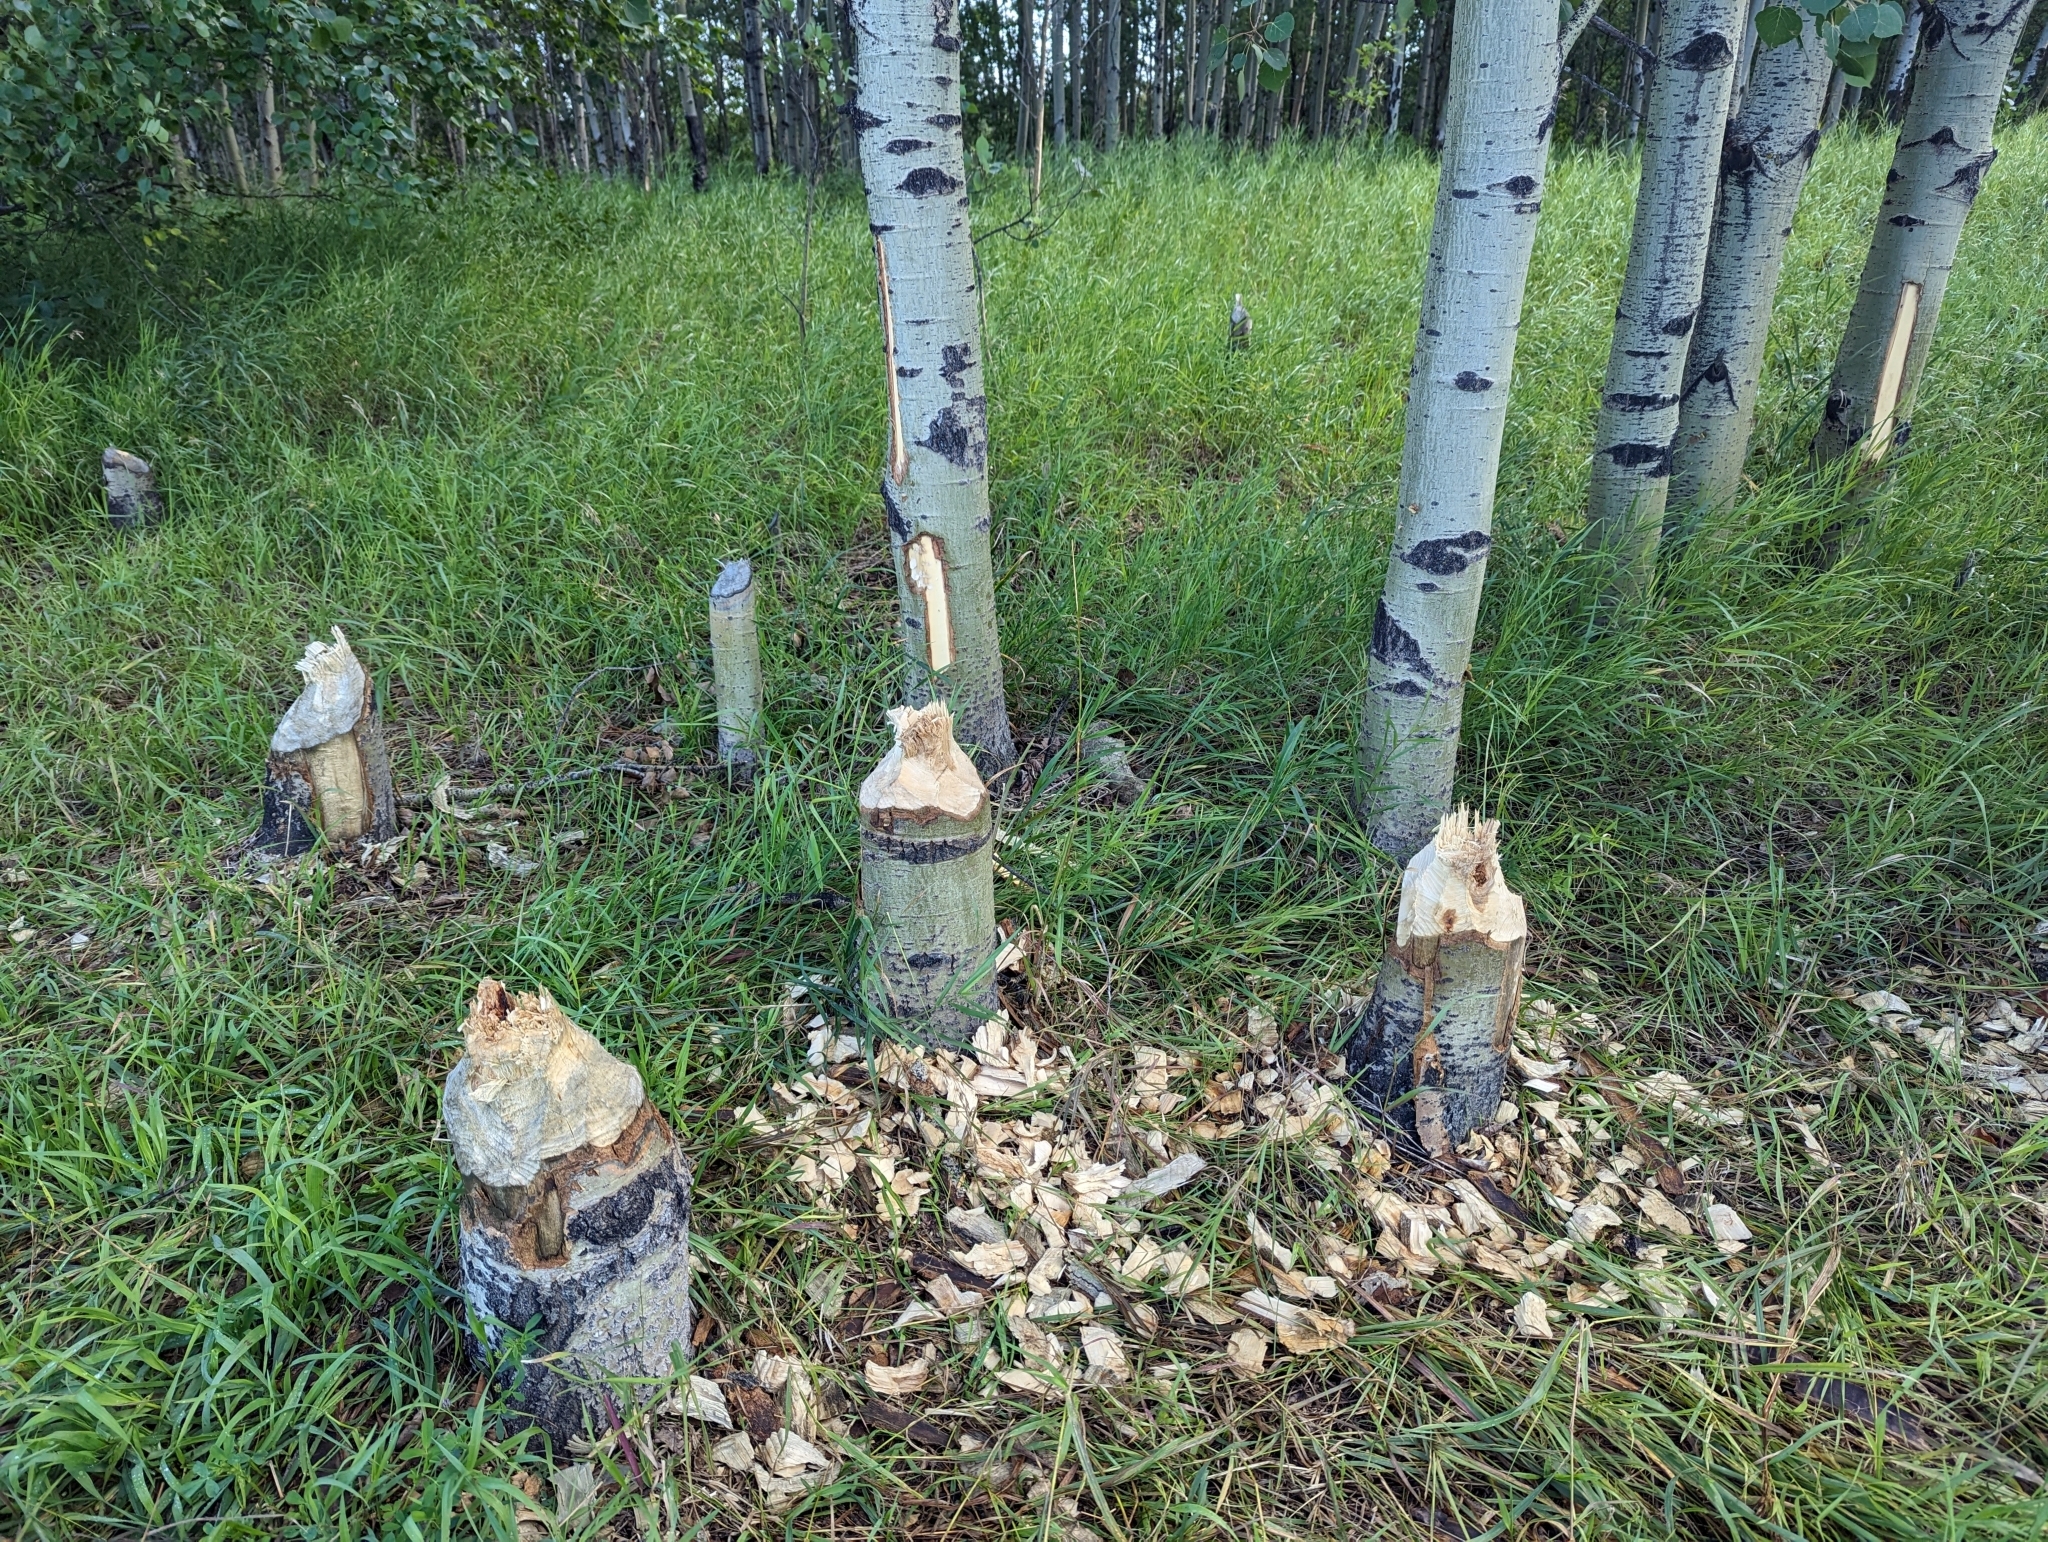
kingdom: Animalia
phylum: Chordata
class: Mammalia
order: Rodentia
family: Castoridae
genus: Castor
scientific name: Castor canadensis
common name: American beaver
